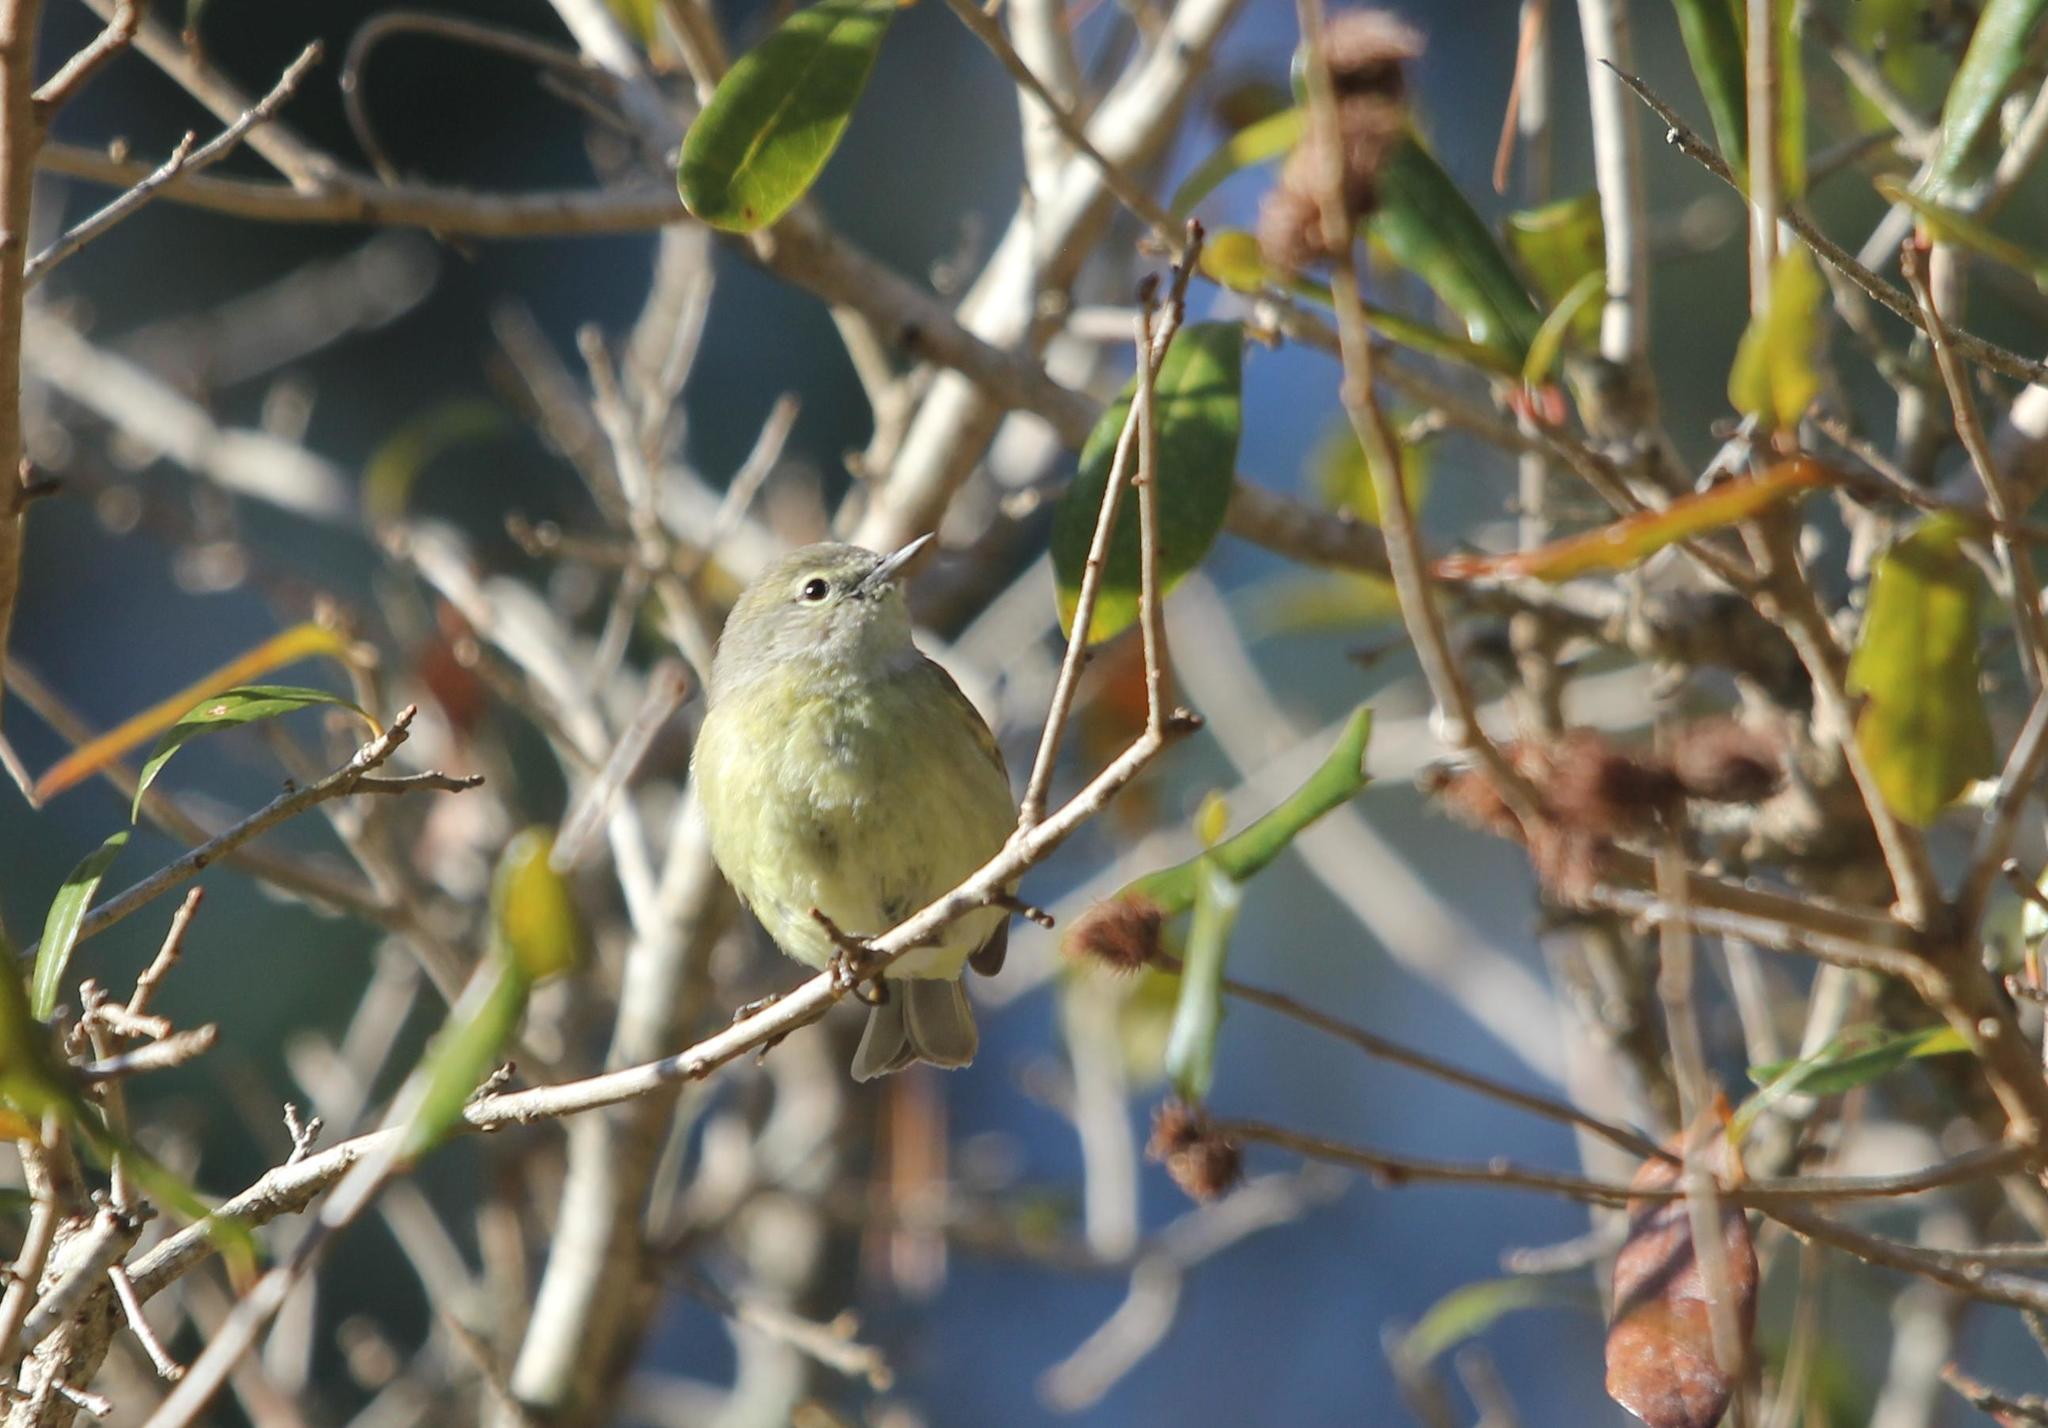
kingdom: Animalia
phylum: Chordata
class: Aves
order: Passeriformes
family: Parulidae
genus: Leiothlypis
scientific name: Leiothlypis celata
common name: Orange-crowned warbler
